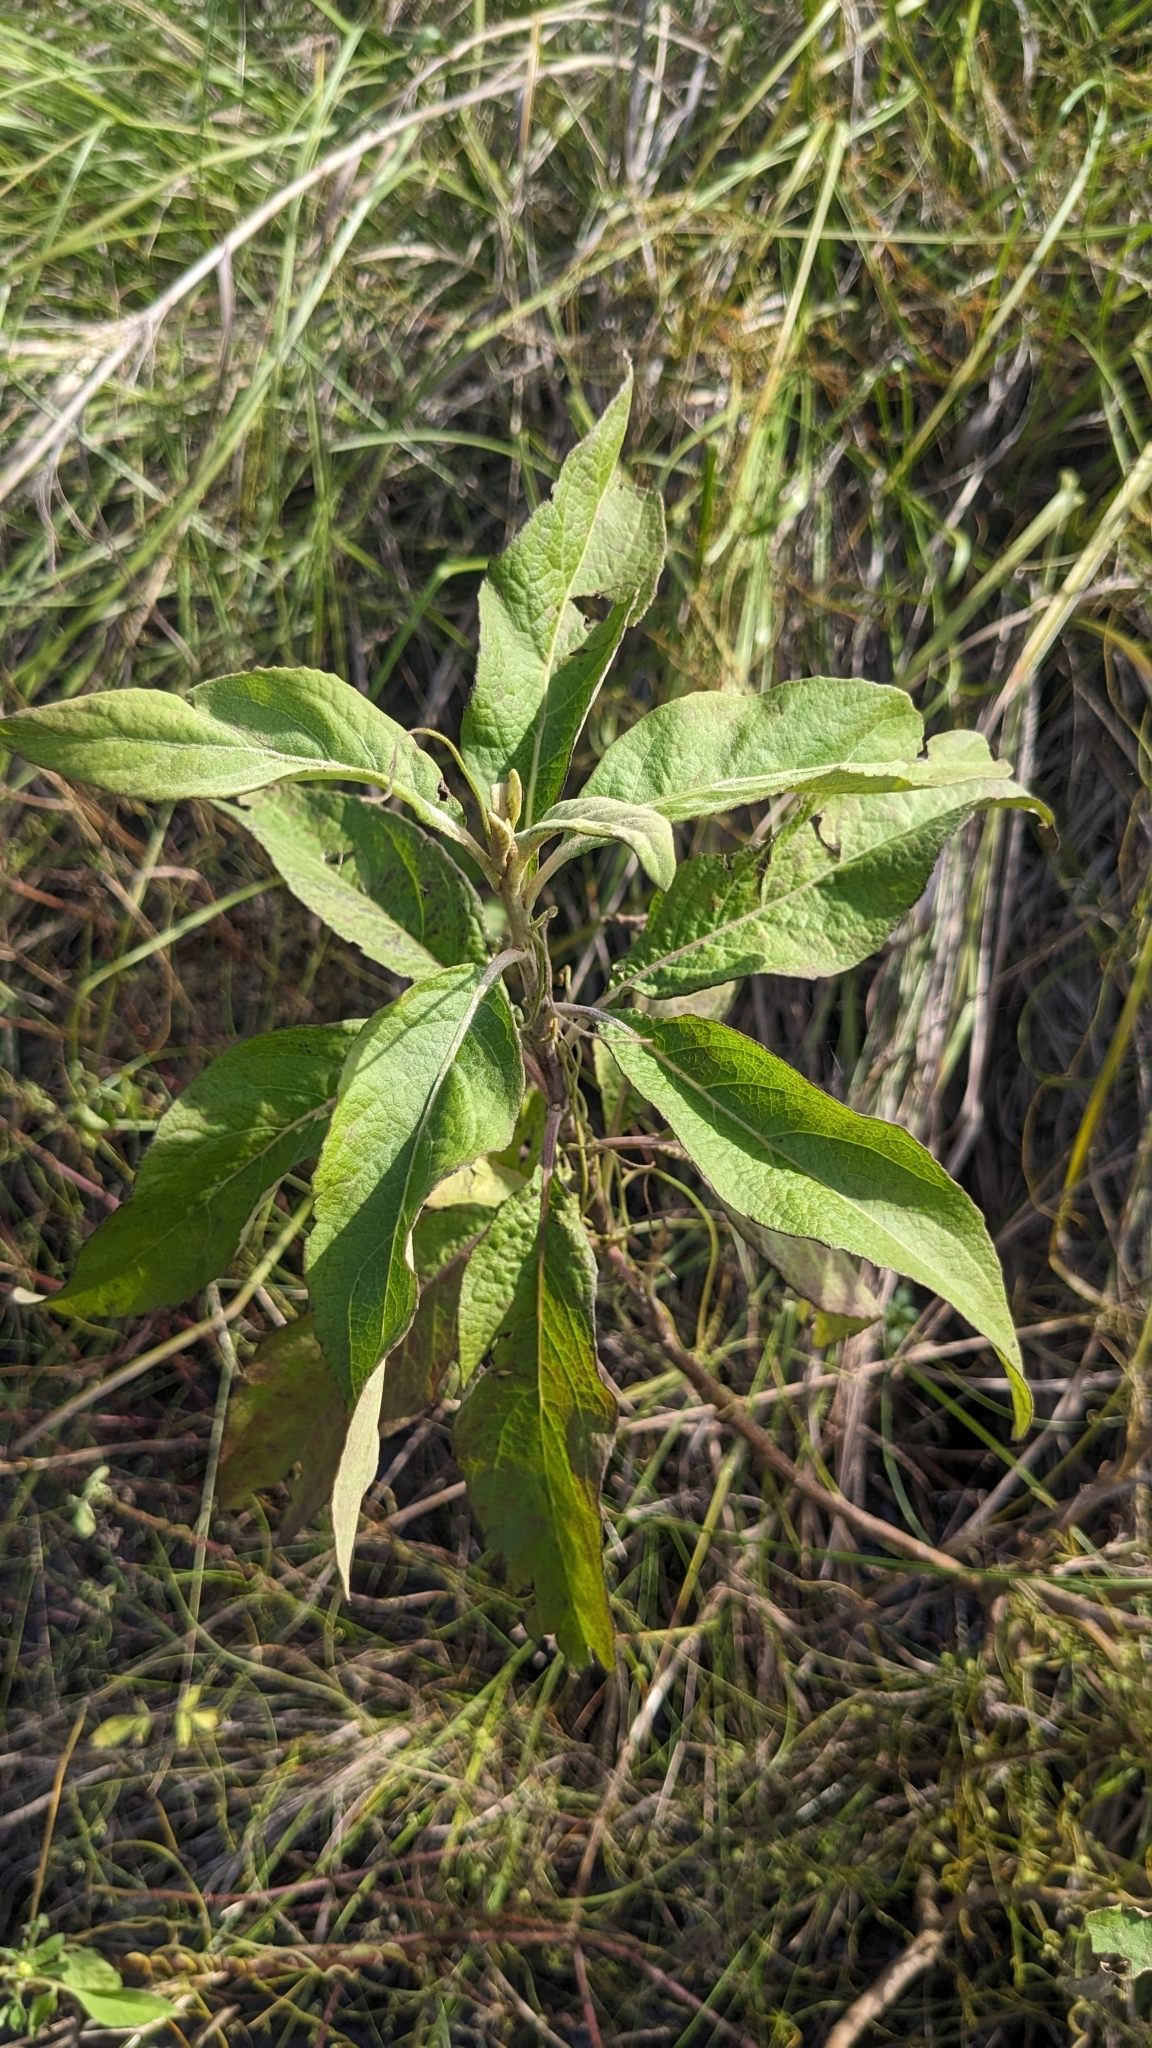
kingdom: Plantae
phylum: Tracheophyta
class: Magnoliopsida
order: Asterales
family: Asteraceae
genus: Pluchea
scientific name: Pluchea carolinensis
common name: Marsh fleabane
